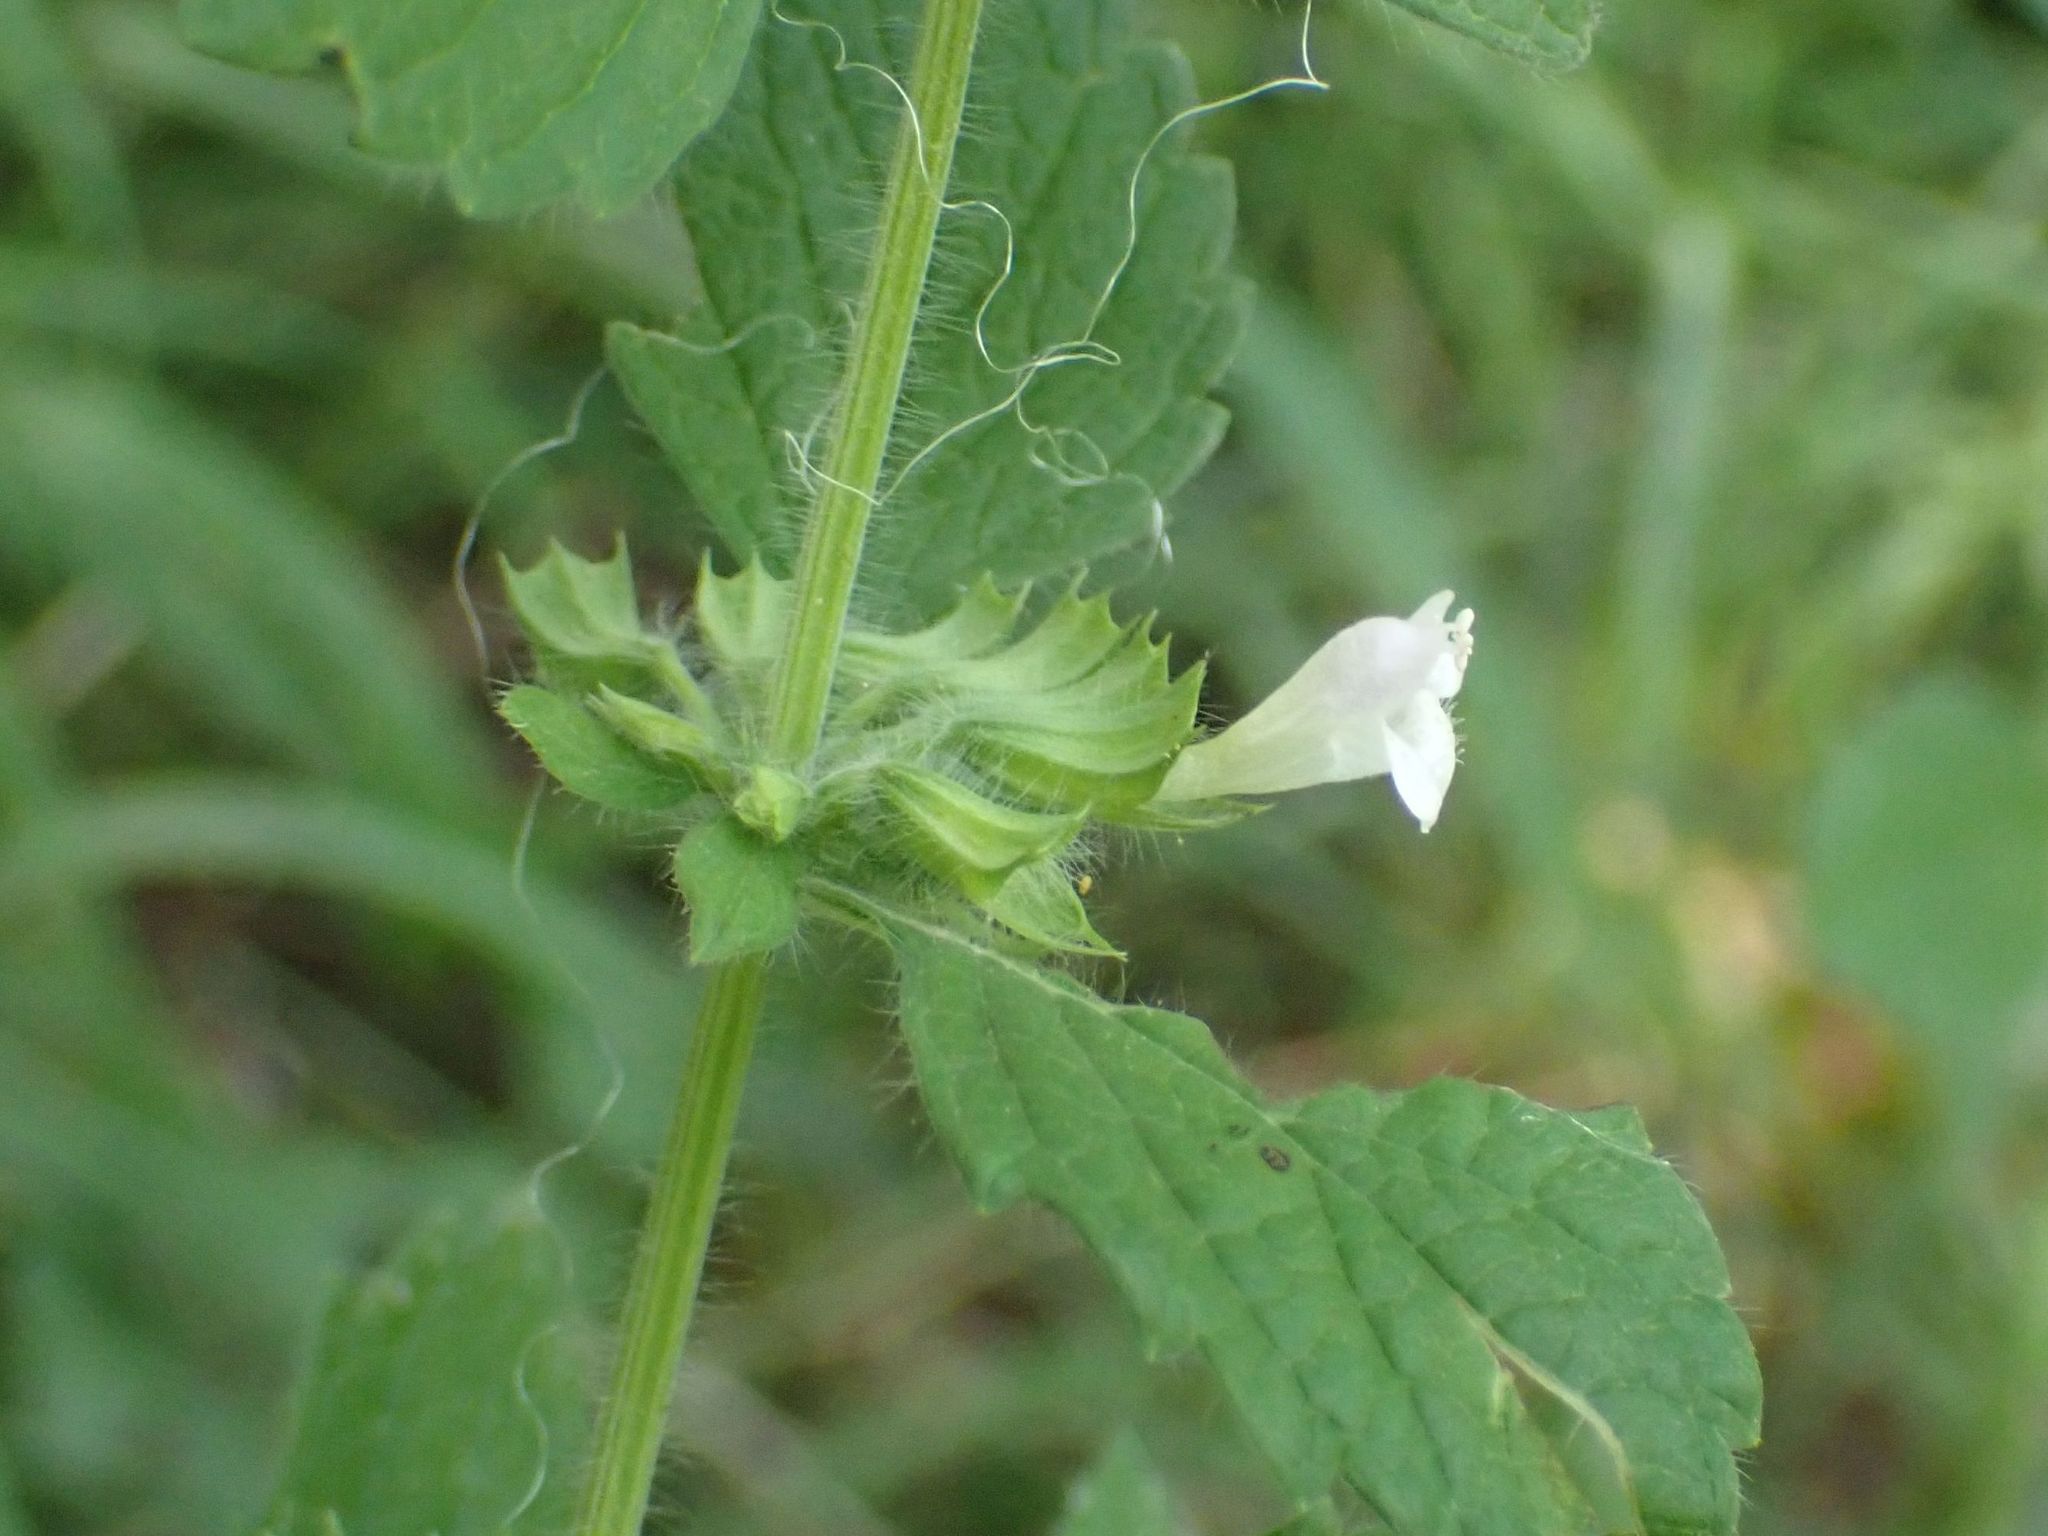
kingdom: Plantae
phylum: Tracheophyta
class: Magnoliopsida
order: Lamiales
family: Lamiaceae
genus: Melissa
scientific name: Melissa officinalis
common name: Balm
